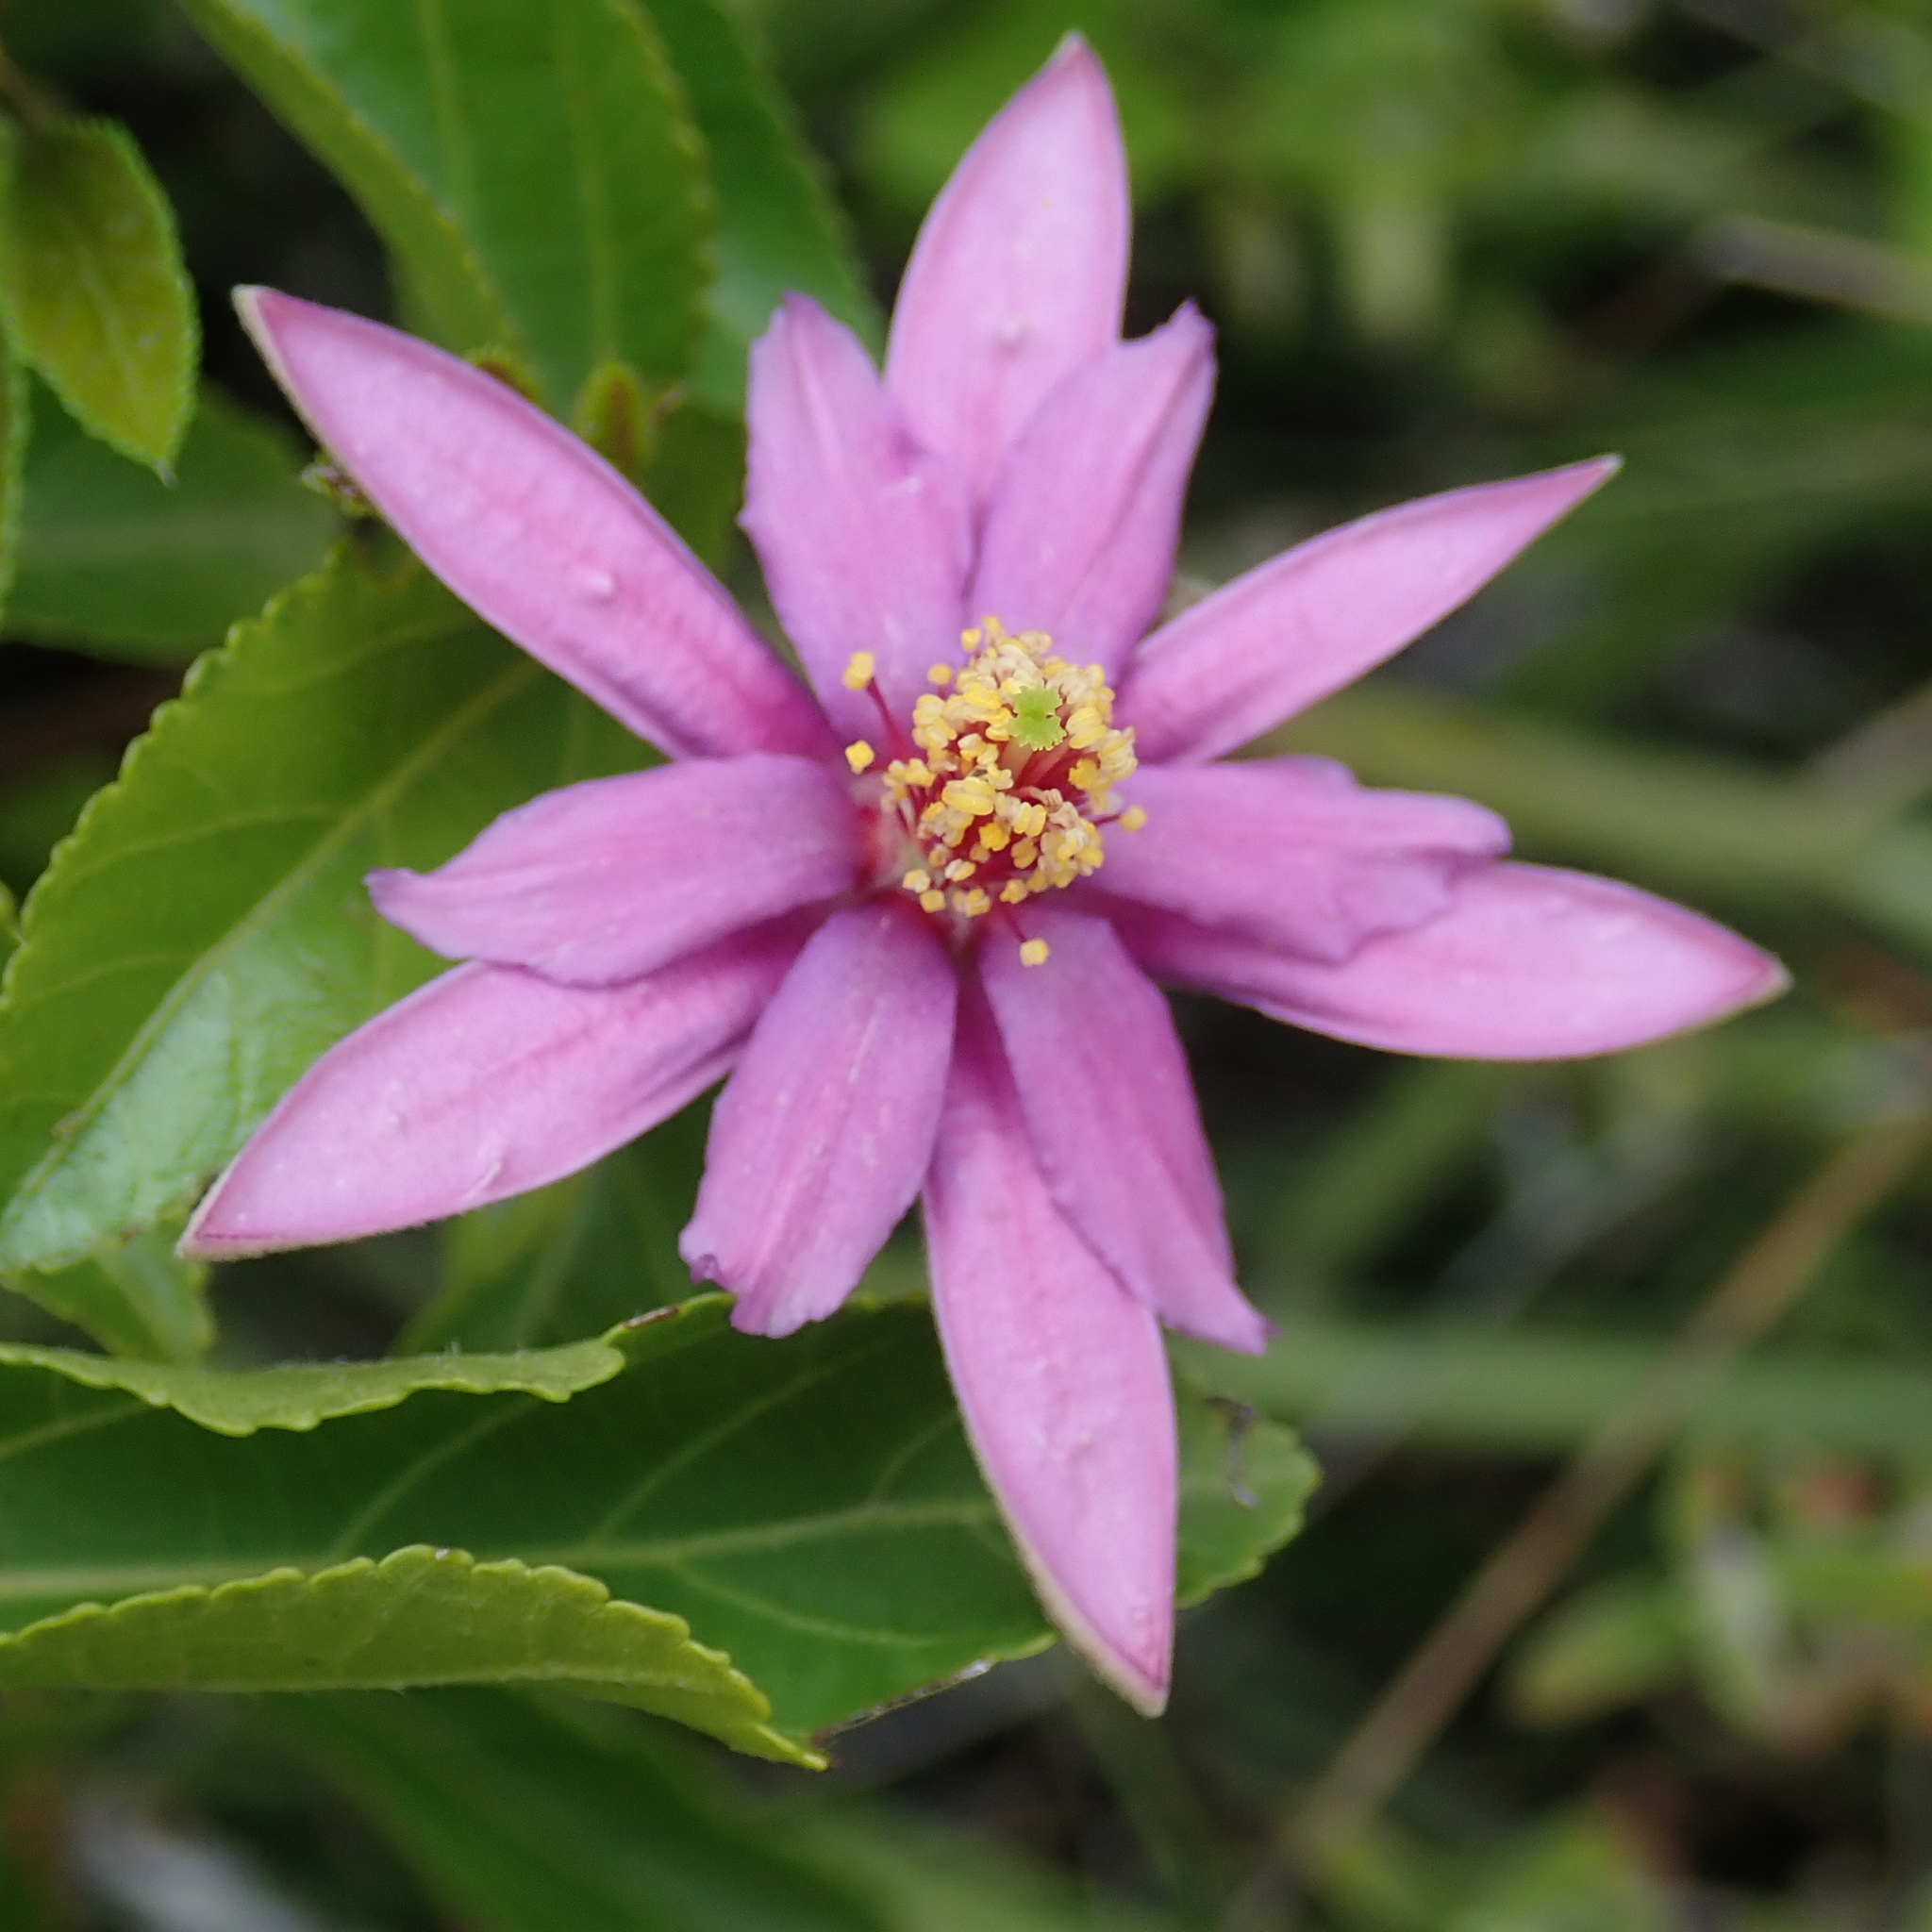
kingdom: Plantae
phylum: Tracheophyta
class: Magnoliopsida
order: Malvales
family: Malvaceae
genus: Grewia
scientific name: Grewia occidentalis
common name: Crossberry
